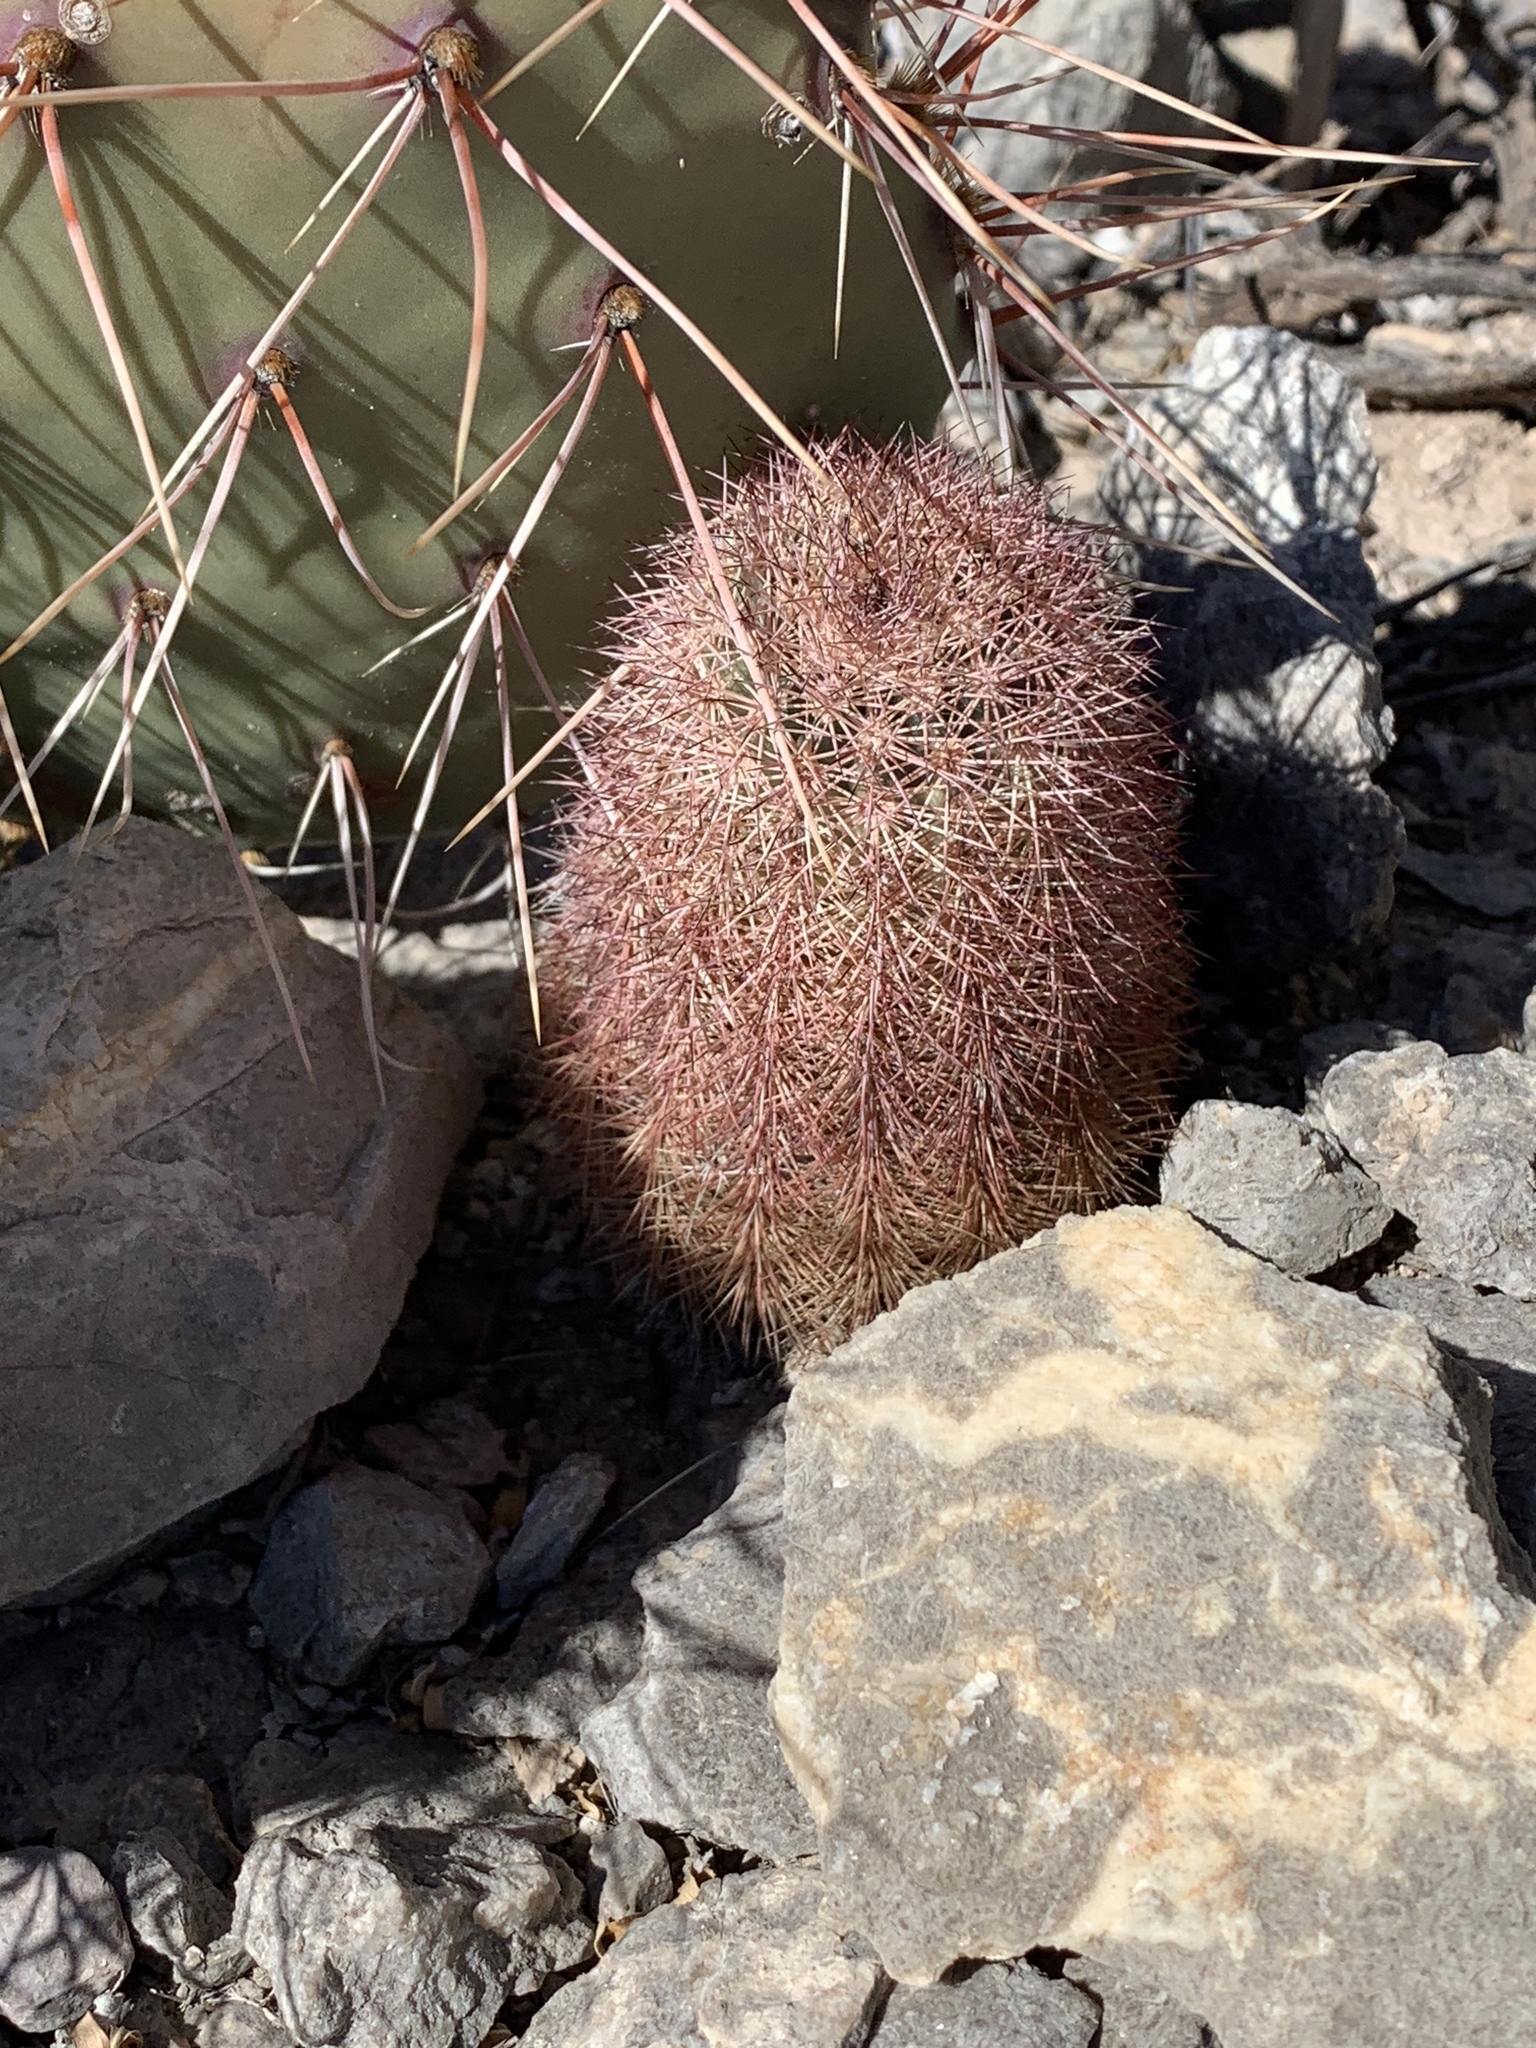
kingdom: Plantae
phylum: Tracheophyta
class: Magnoliopsida
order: Caryophyllales
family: Cactaceae
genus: Echinocereus
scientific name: Echinocereus dasyacanthus
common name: Spiny hedgehog cactus
